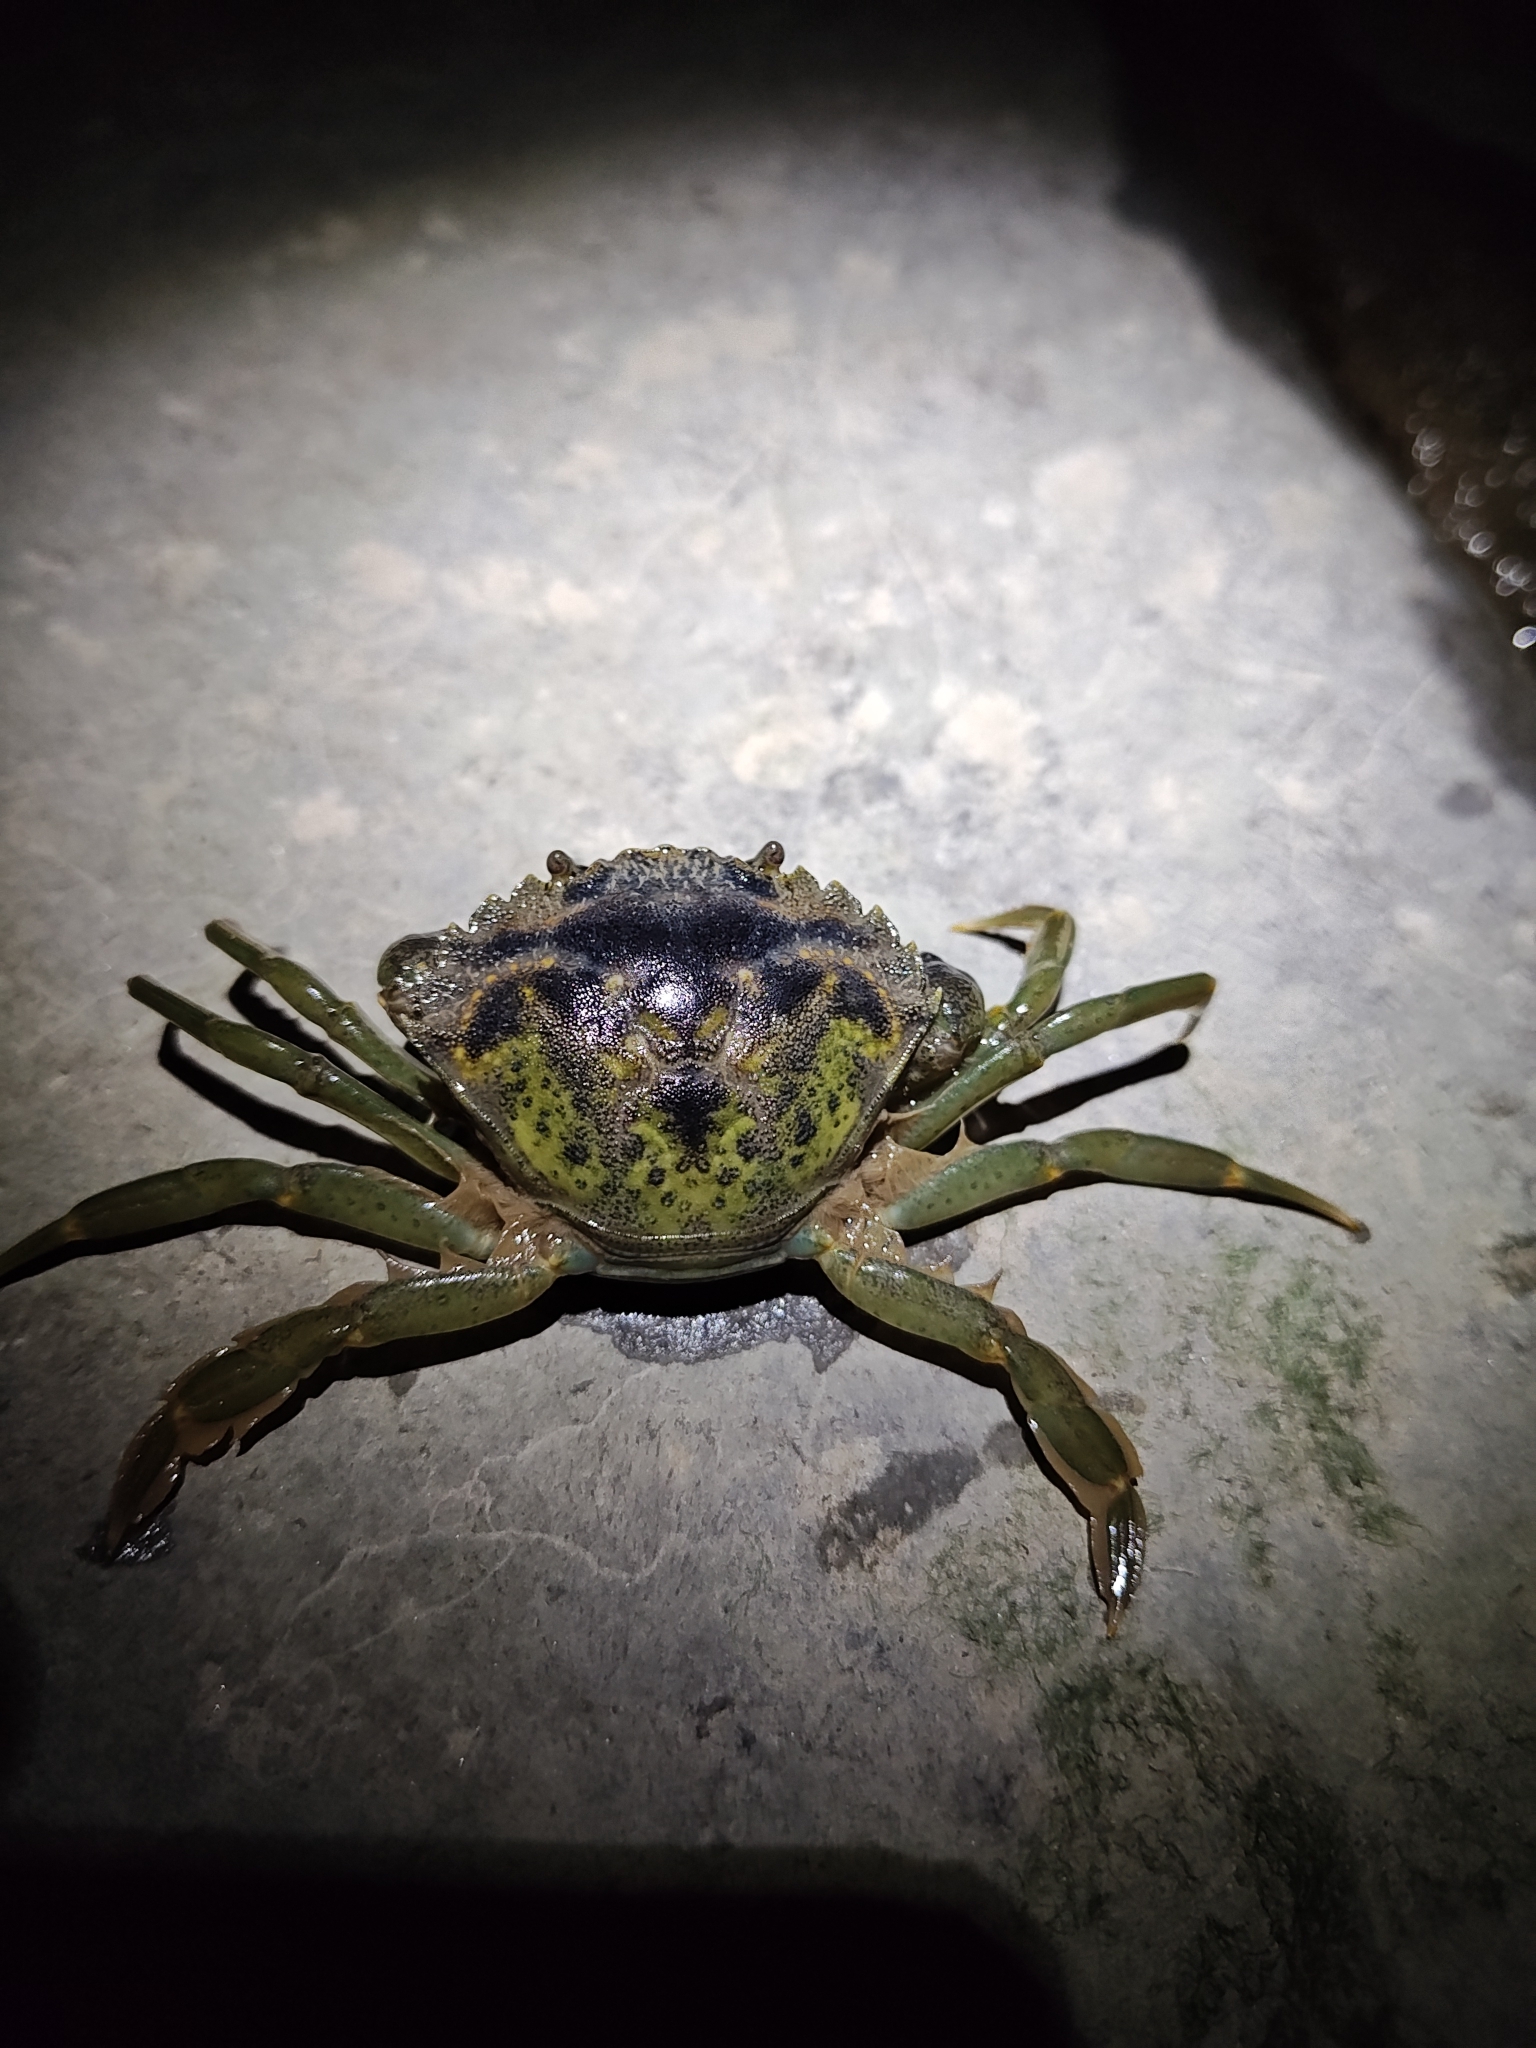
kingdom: Animalia
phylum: Arthropoda
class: Malacostraca
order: Decapoda
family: Carcinidae
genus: Carcinus
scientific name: Carcinus maenas
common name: European green crab
